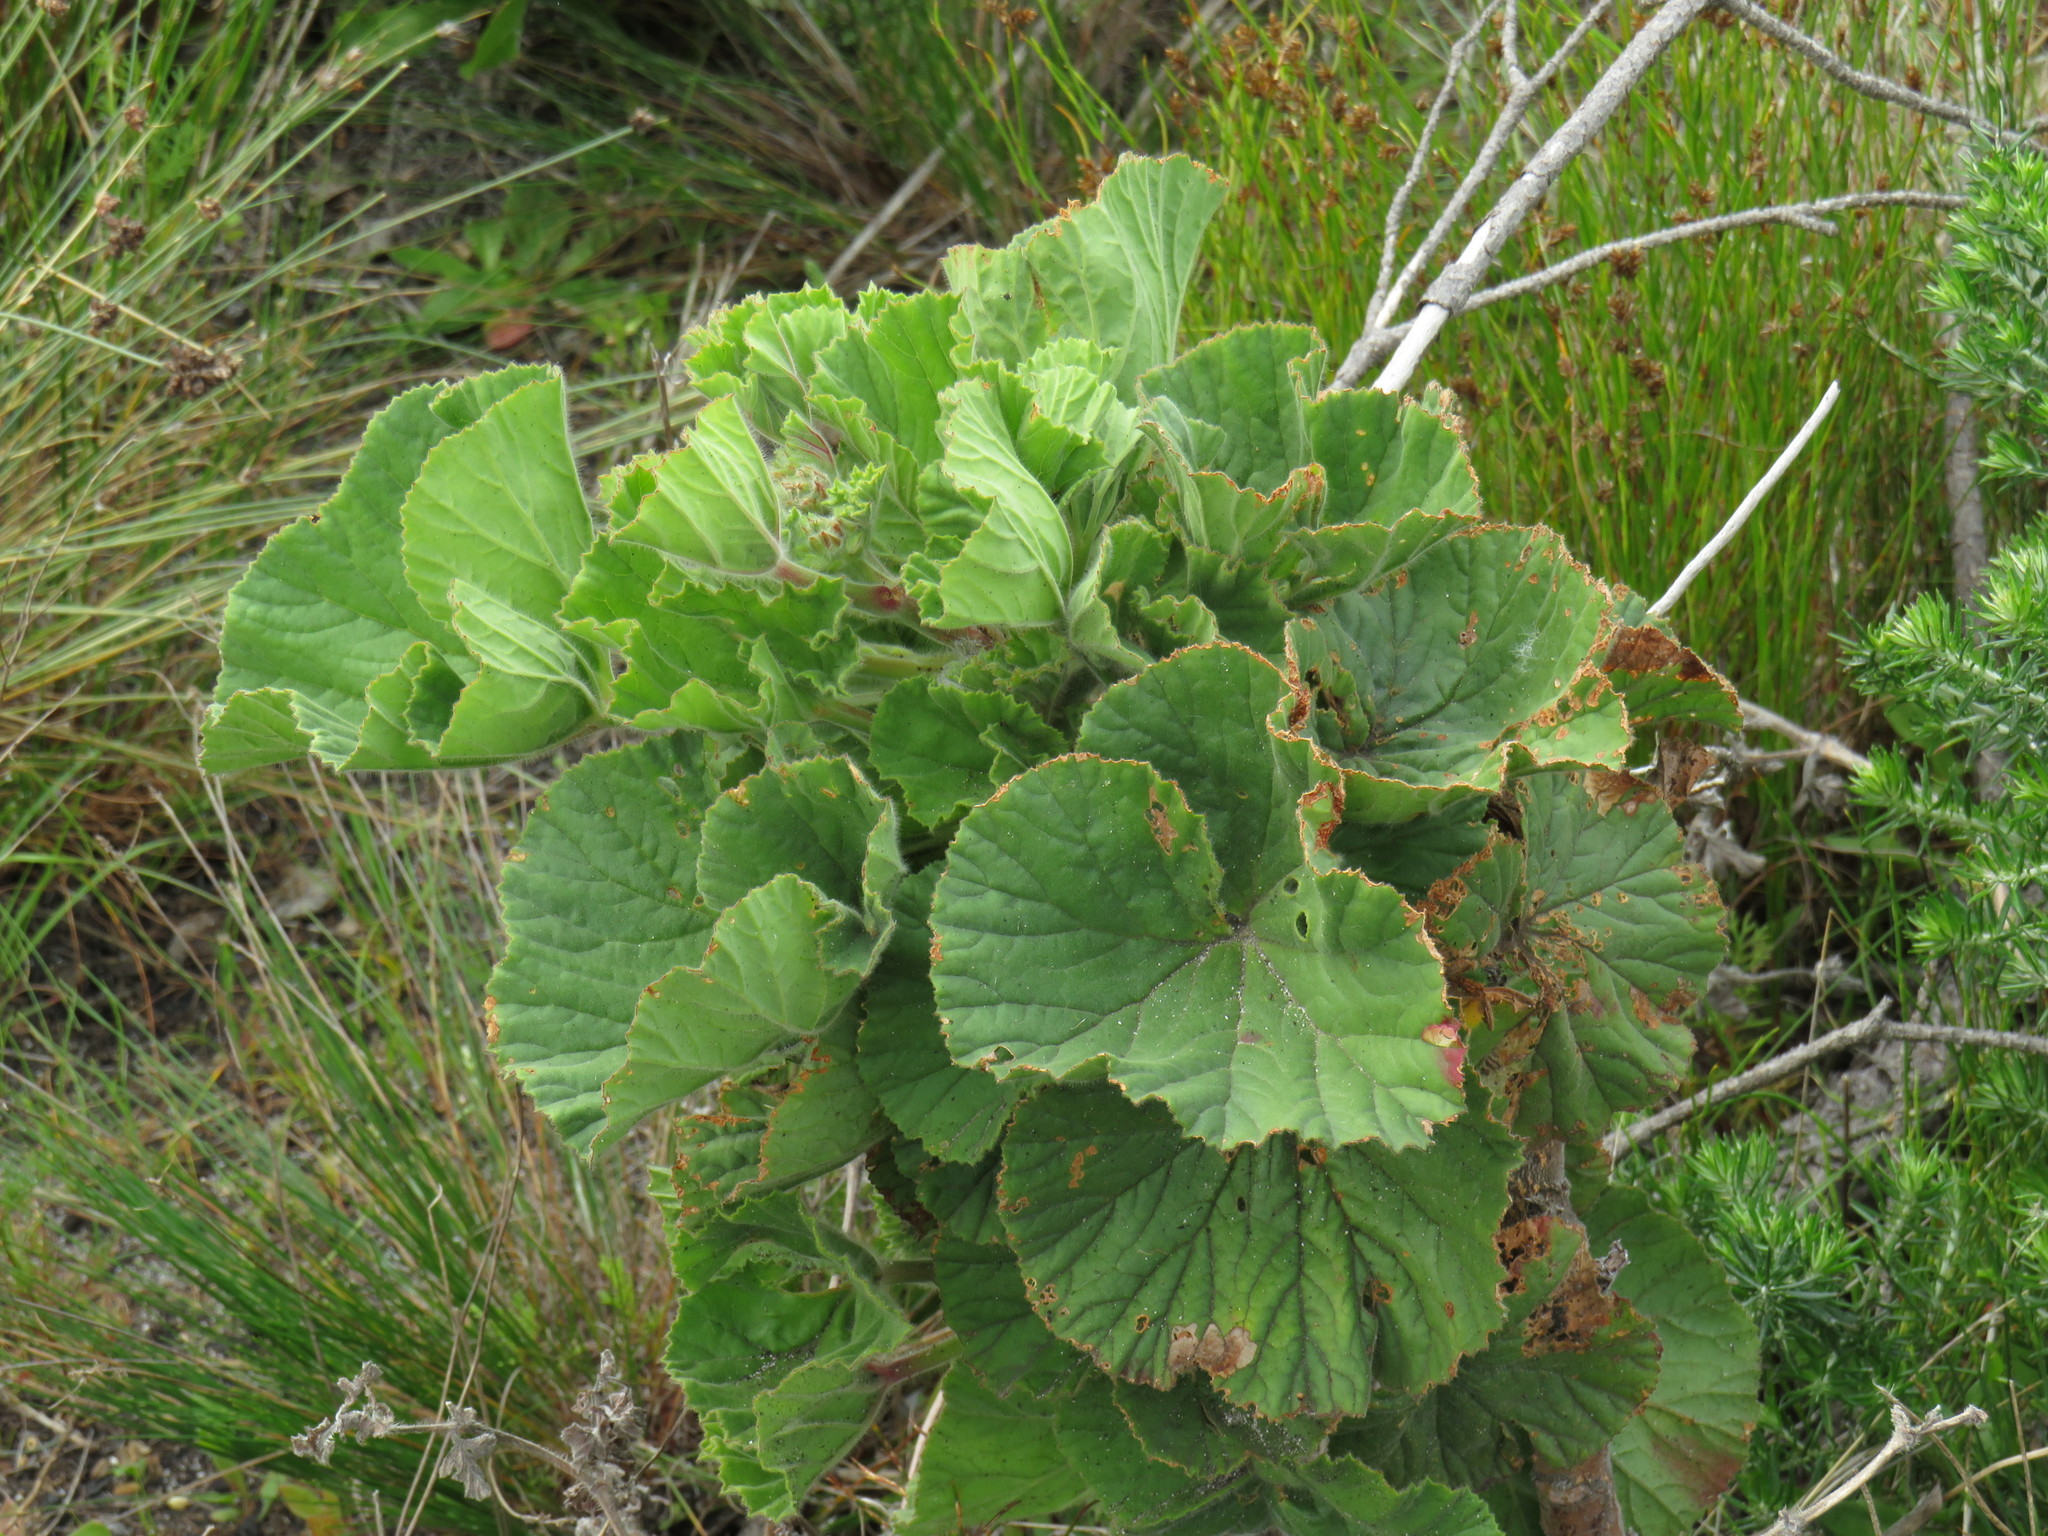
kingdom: Plantae
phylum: Tracheophyta
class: Magnoliopsida
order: Geraniales
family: Geraniaceae
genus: Pelargonium
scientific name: Pelargonium cucullatum
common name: Tree pelargonium
